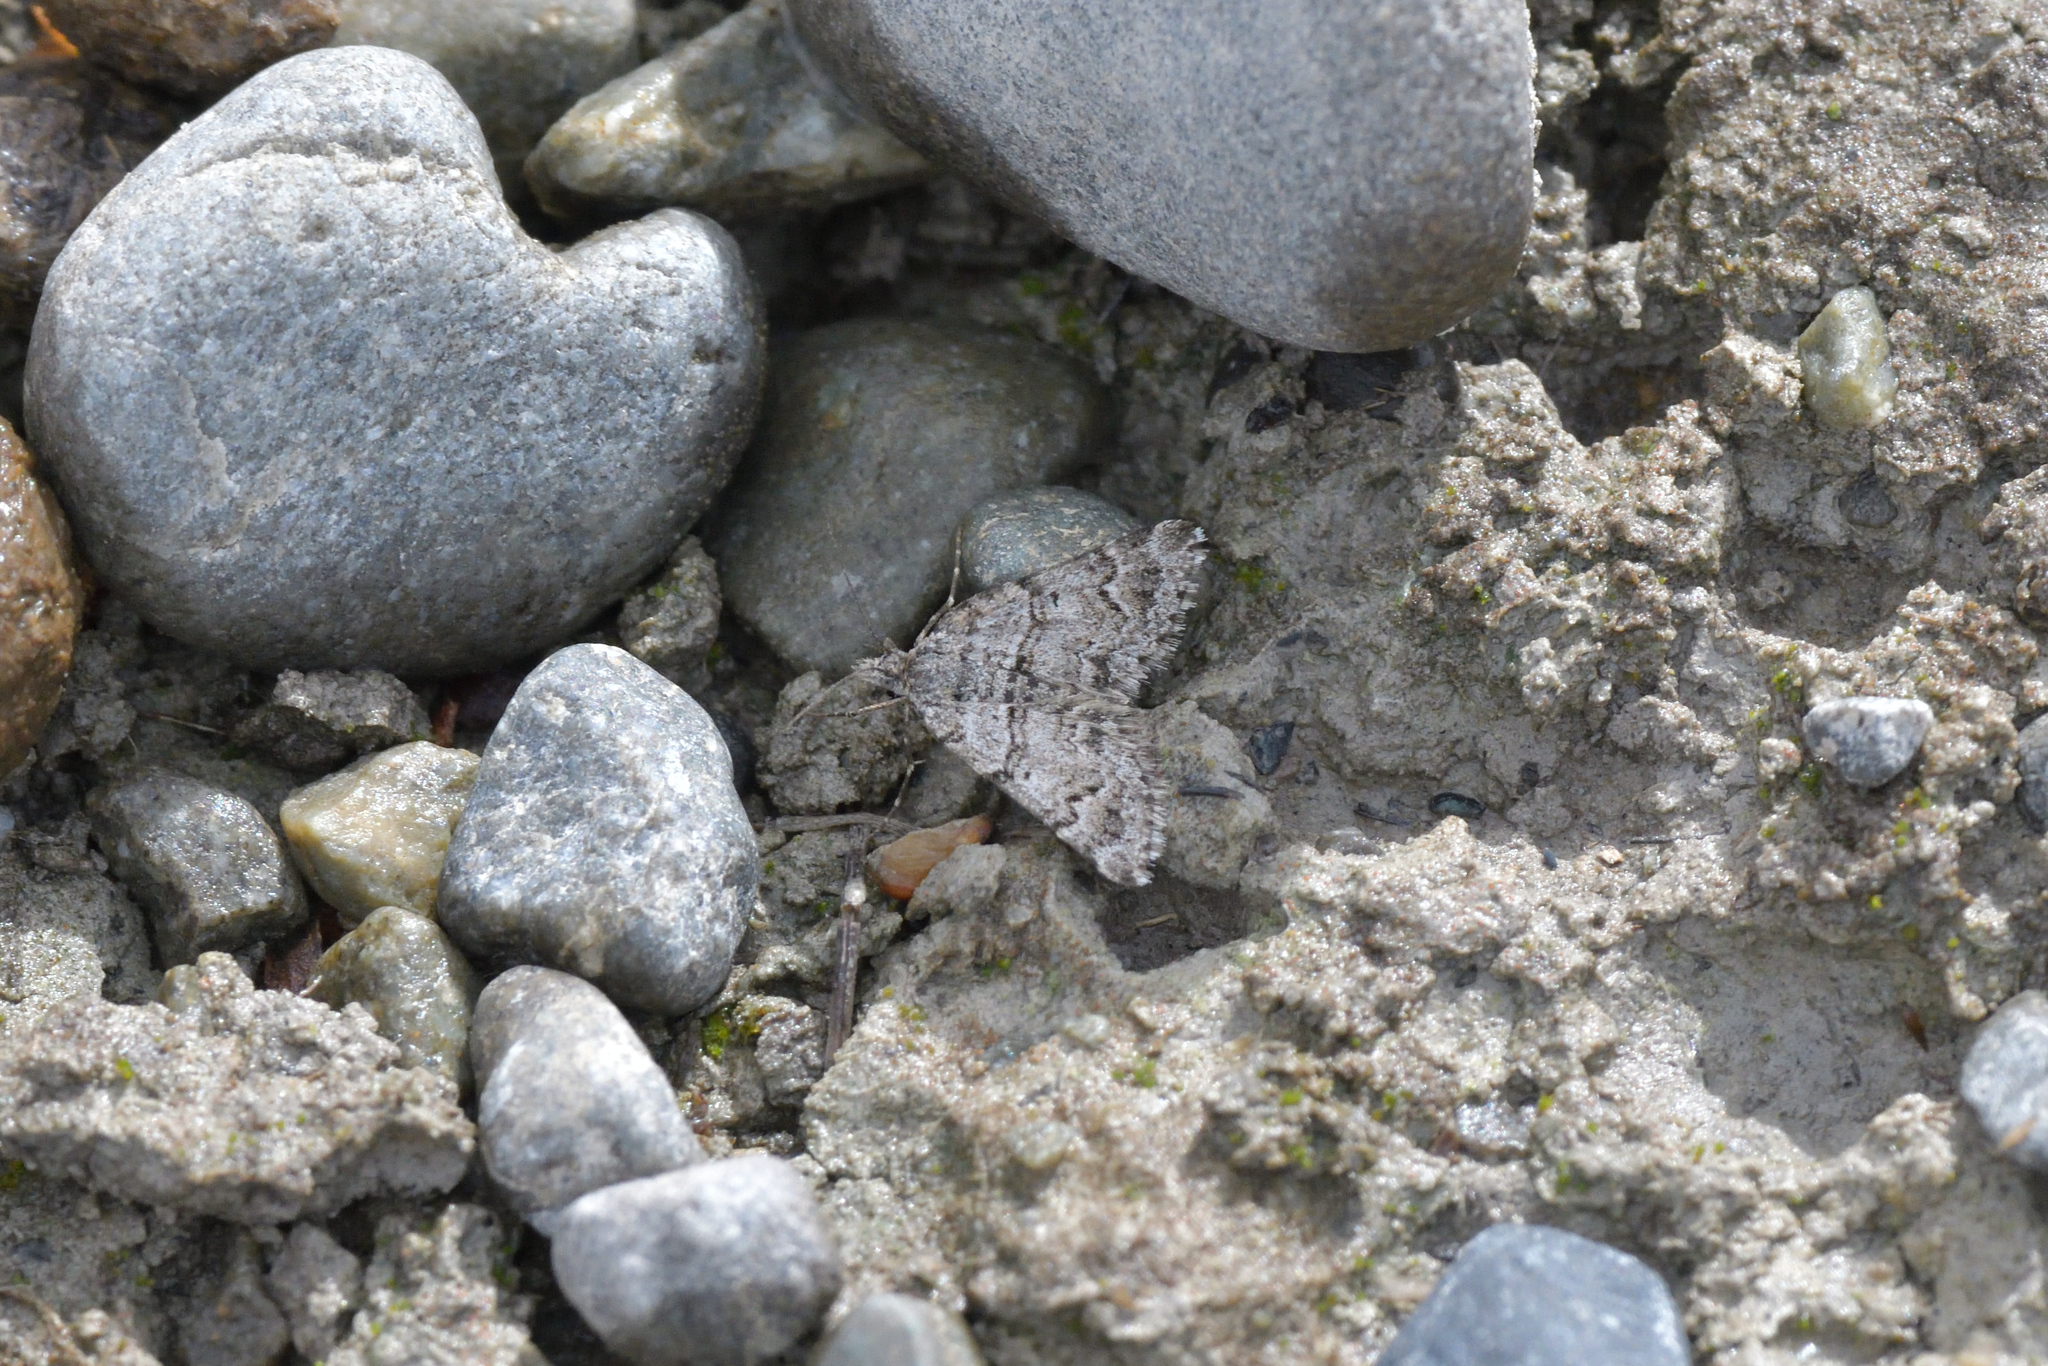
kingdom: Animalia
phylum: Arthropoda
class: Insecta
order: Lepidoptera
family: Geometridae
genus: Arctesthes
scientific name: Arctesthes catapyrrha
